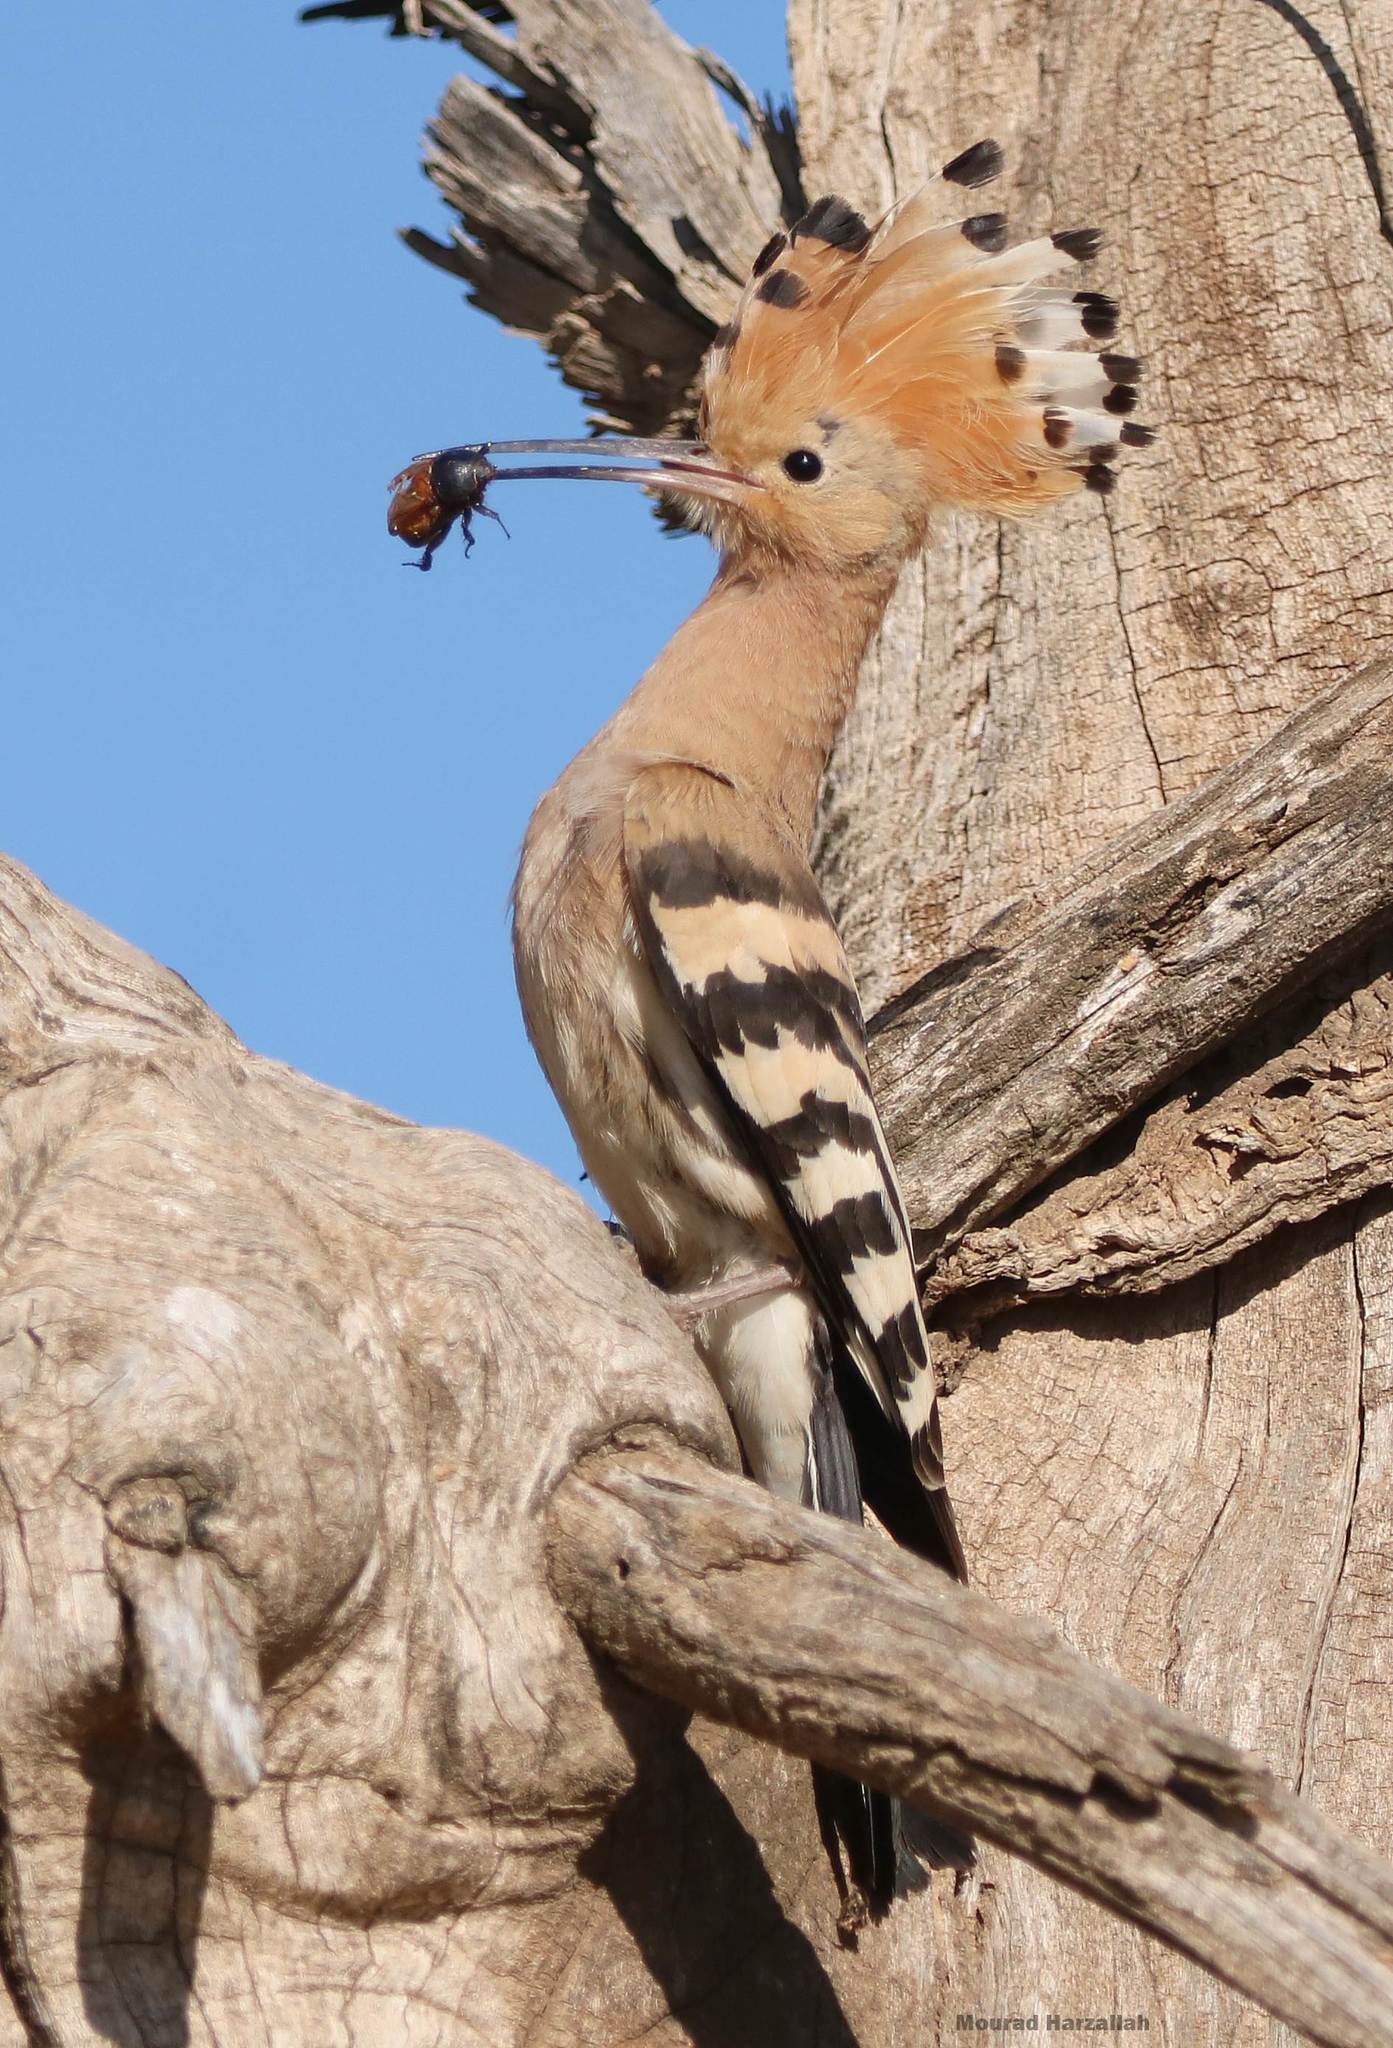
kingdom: Animalia
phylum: Chordata
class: Aves
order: Bucerotiformes
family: Upupidae
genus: Upupa
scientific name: Upupa epops
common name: Eurasian hoopoe
